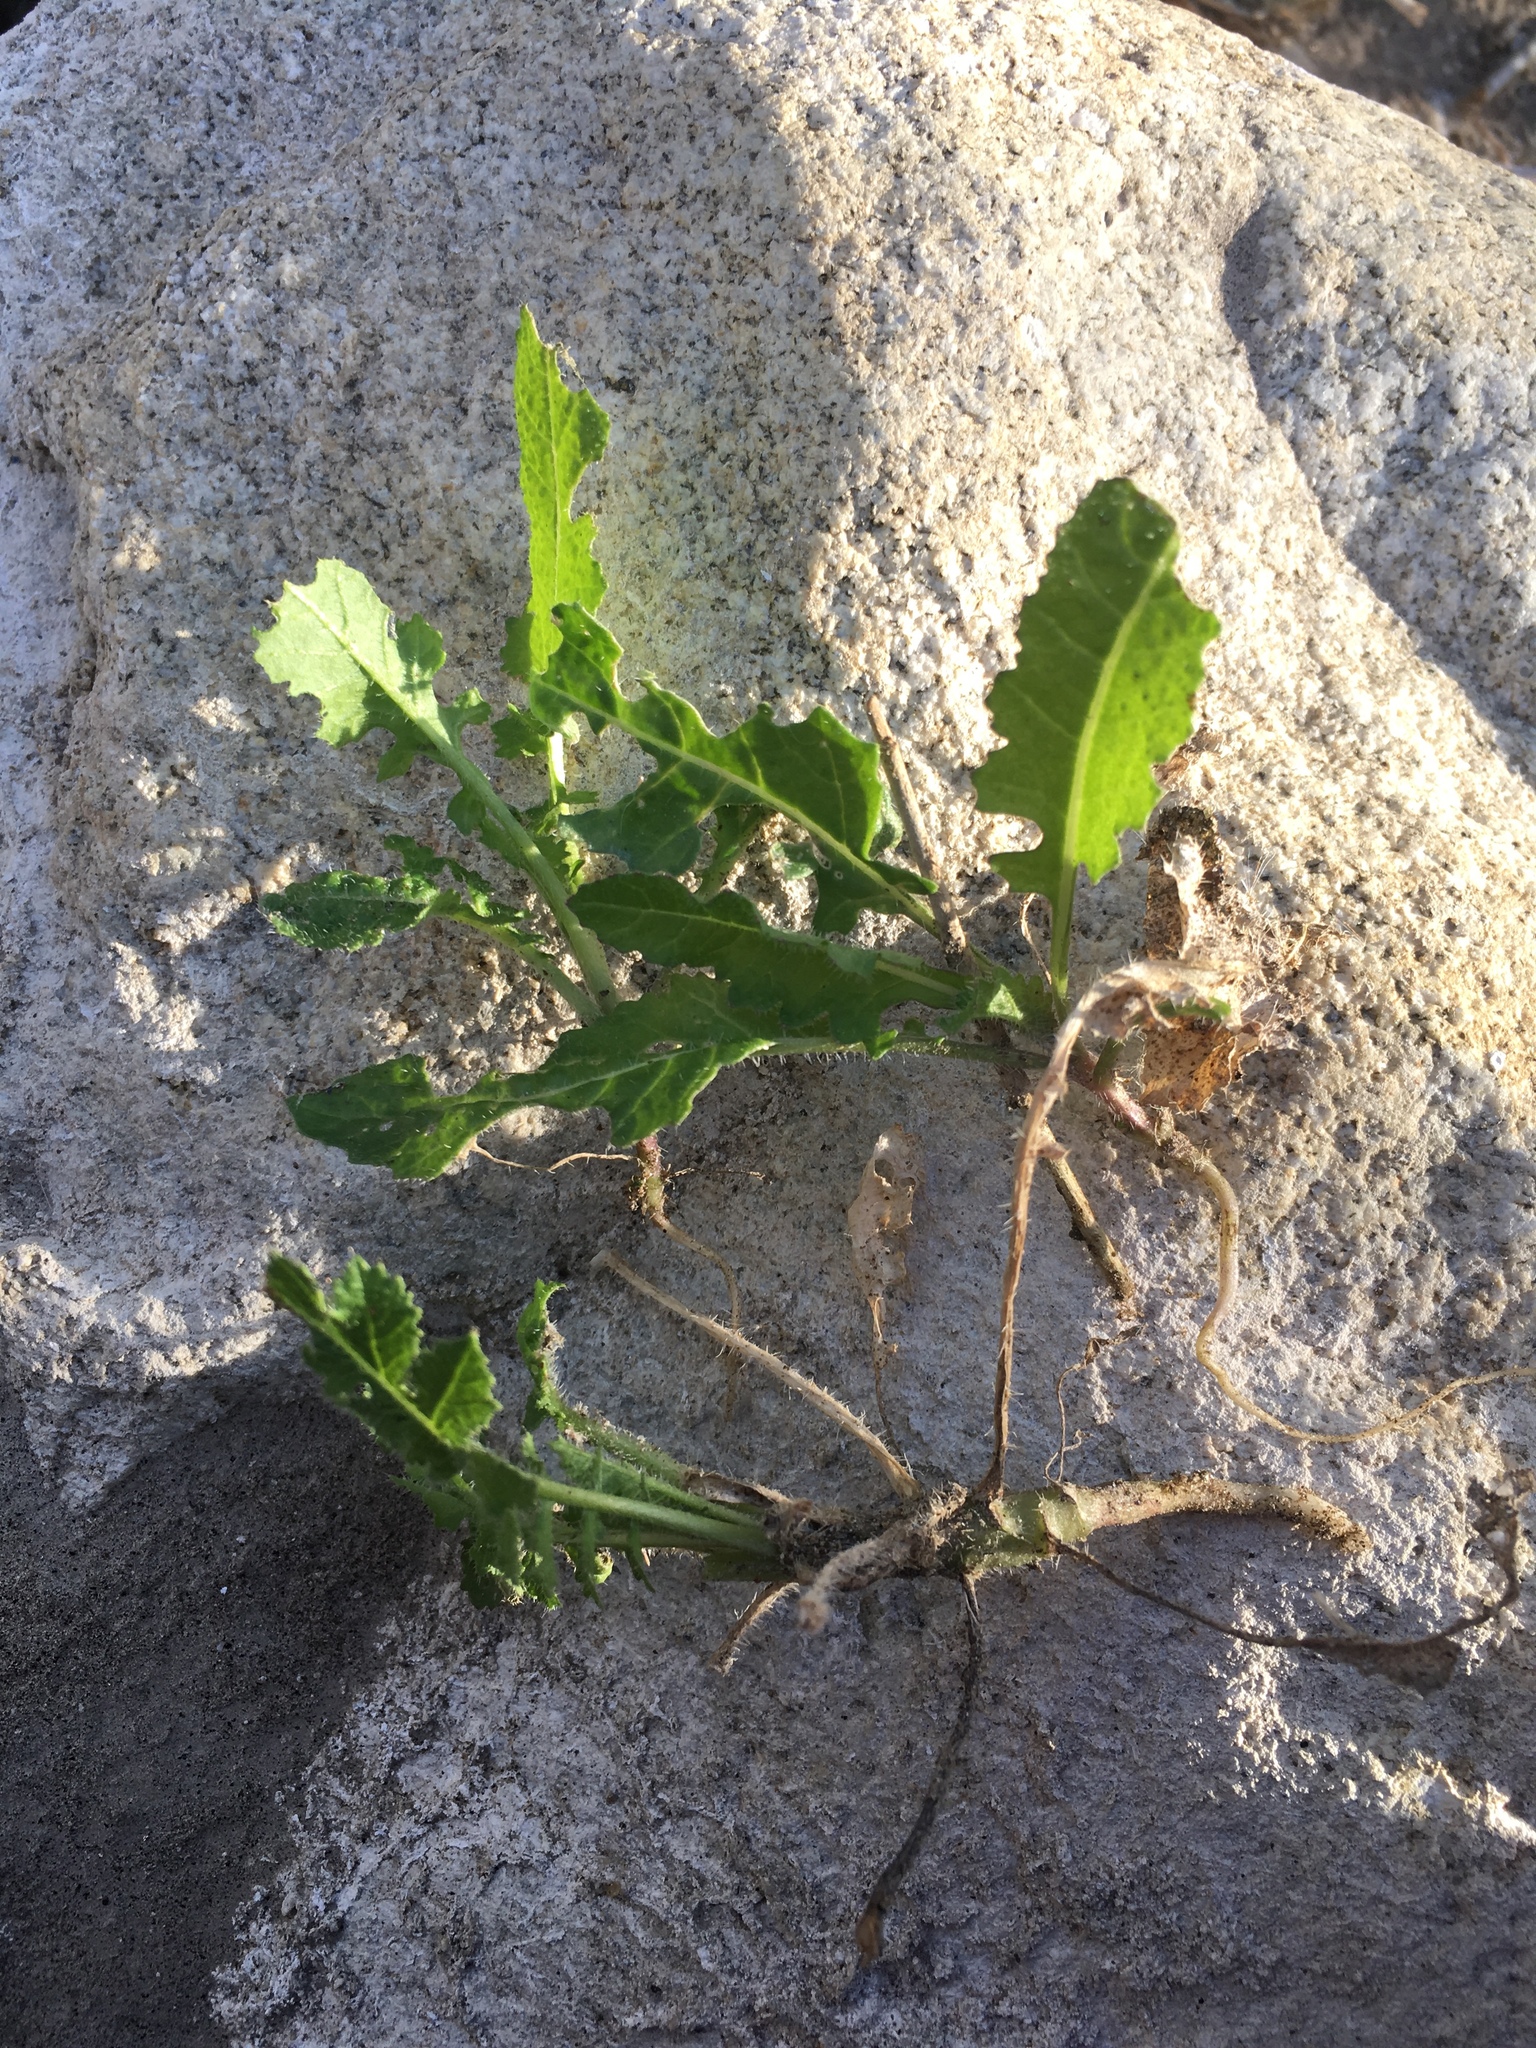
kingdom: Plantae
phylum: Tracheophyta
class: Magnoliopsida
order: Brassicales
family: Brassicaceae
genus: Brassica
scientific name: Brassica tournefortii
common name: Pale cabbage
